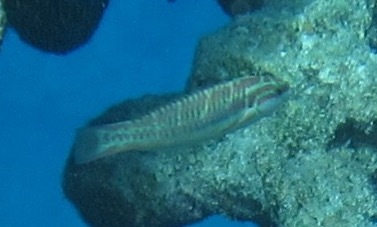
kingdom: Animalia
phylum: Chordata
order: Perciformes
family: Labridae
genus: Thalassoma
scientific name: Thalassoma quinquevittatum
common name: Five striped surge wrasse
